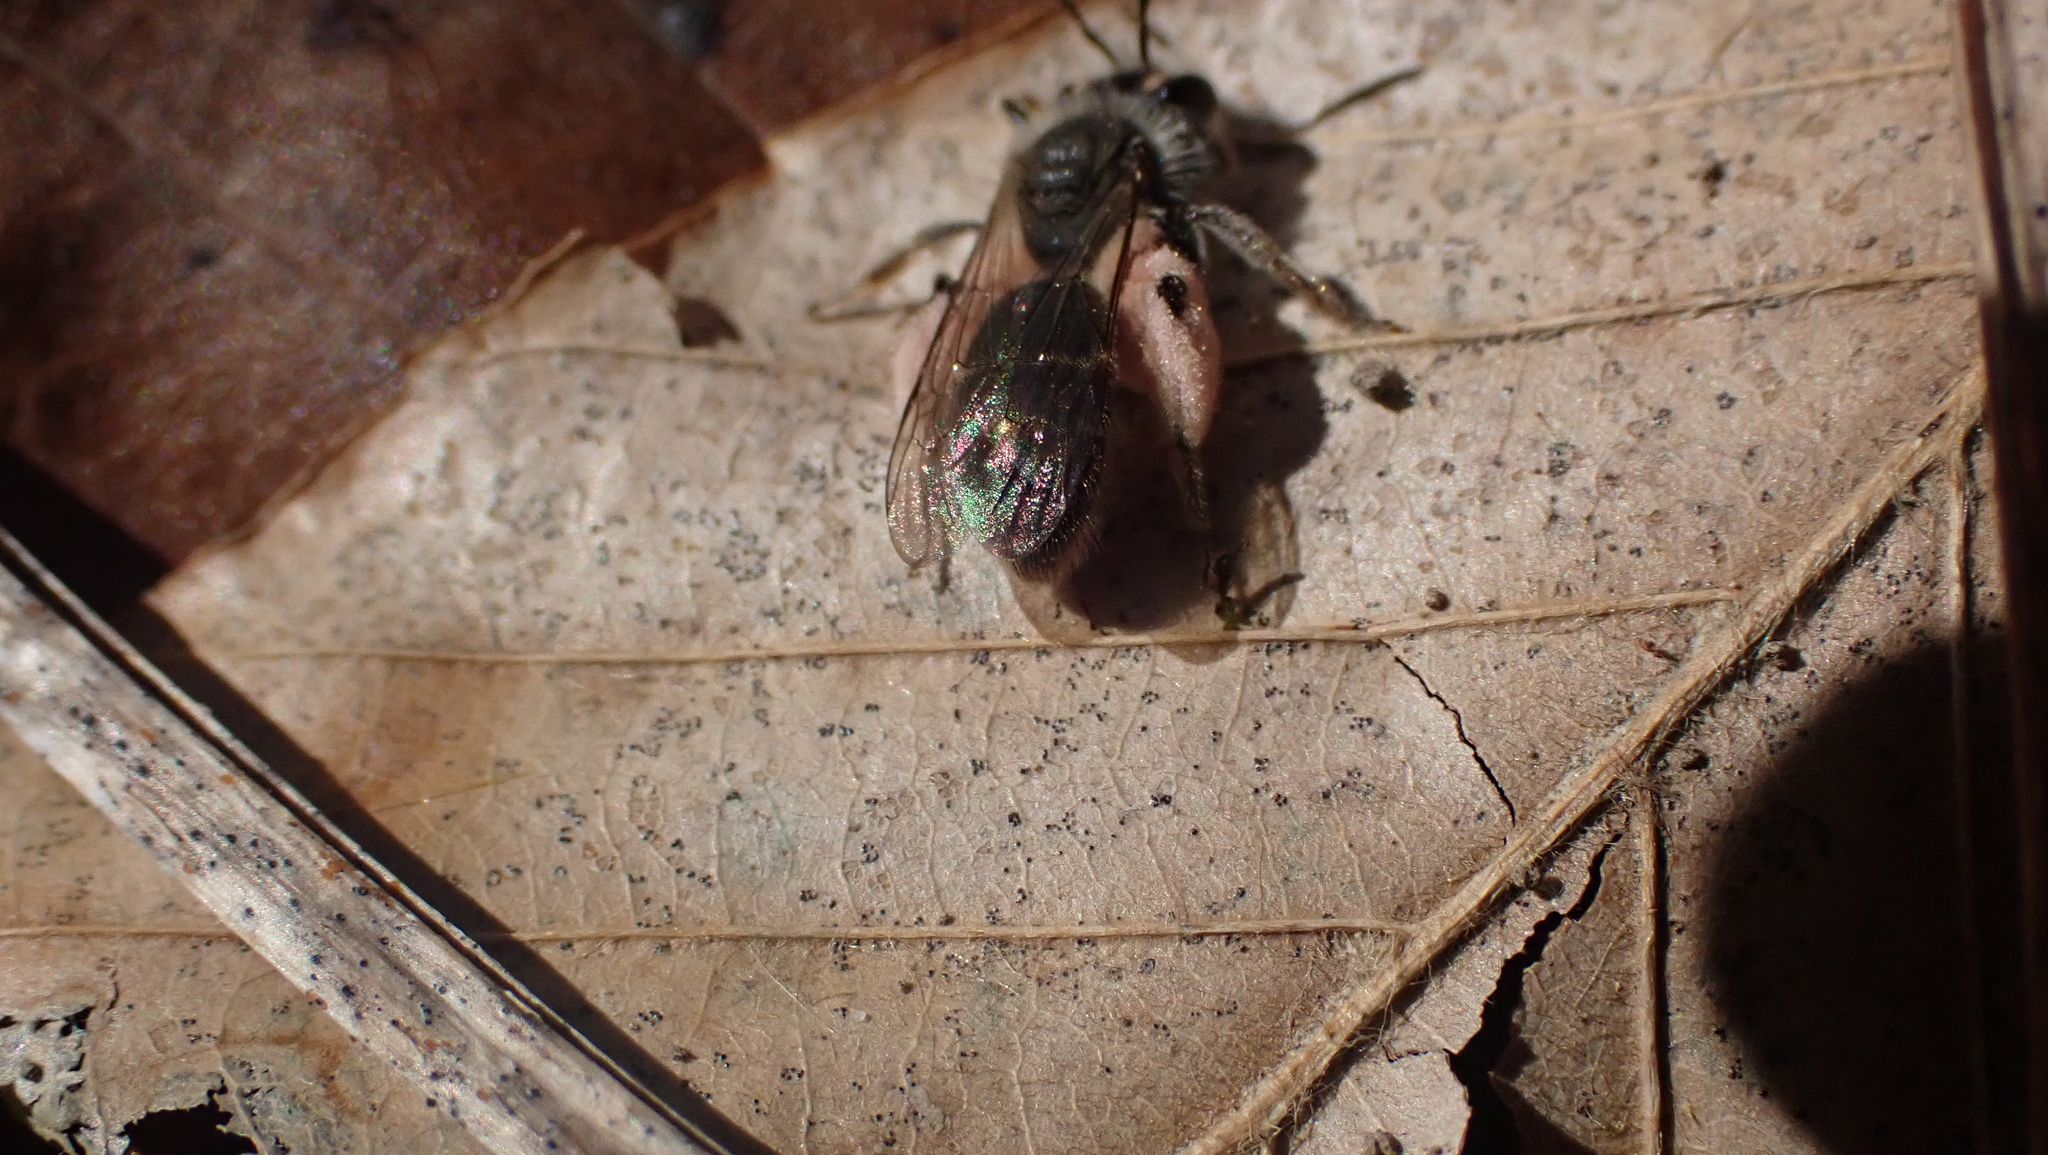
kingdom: Animalia
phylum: Arthropoda
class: Insecta
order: Hymenoptera
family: Andrenidae
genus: Andrena
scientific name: Andrena erigeniae
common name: Spring beauty miner
